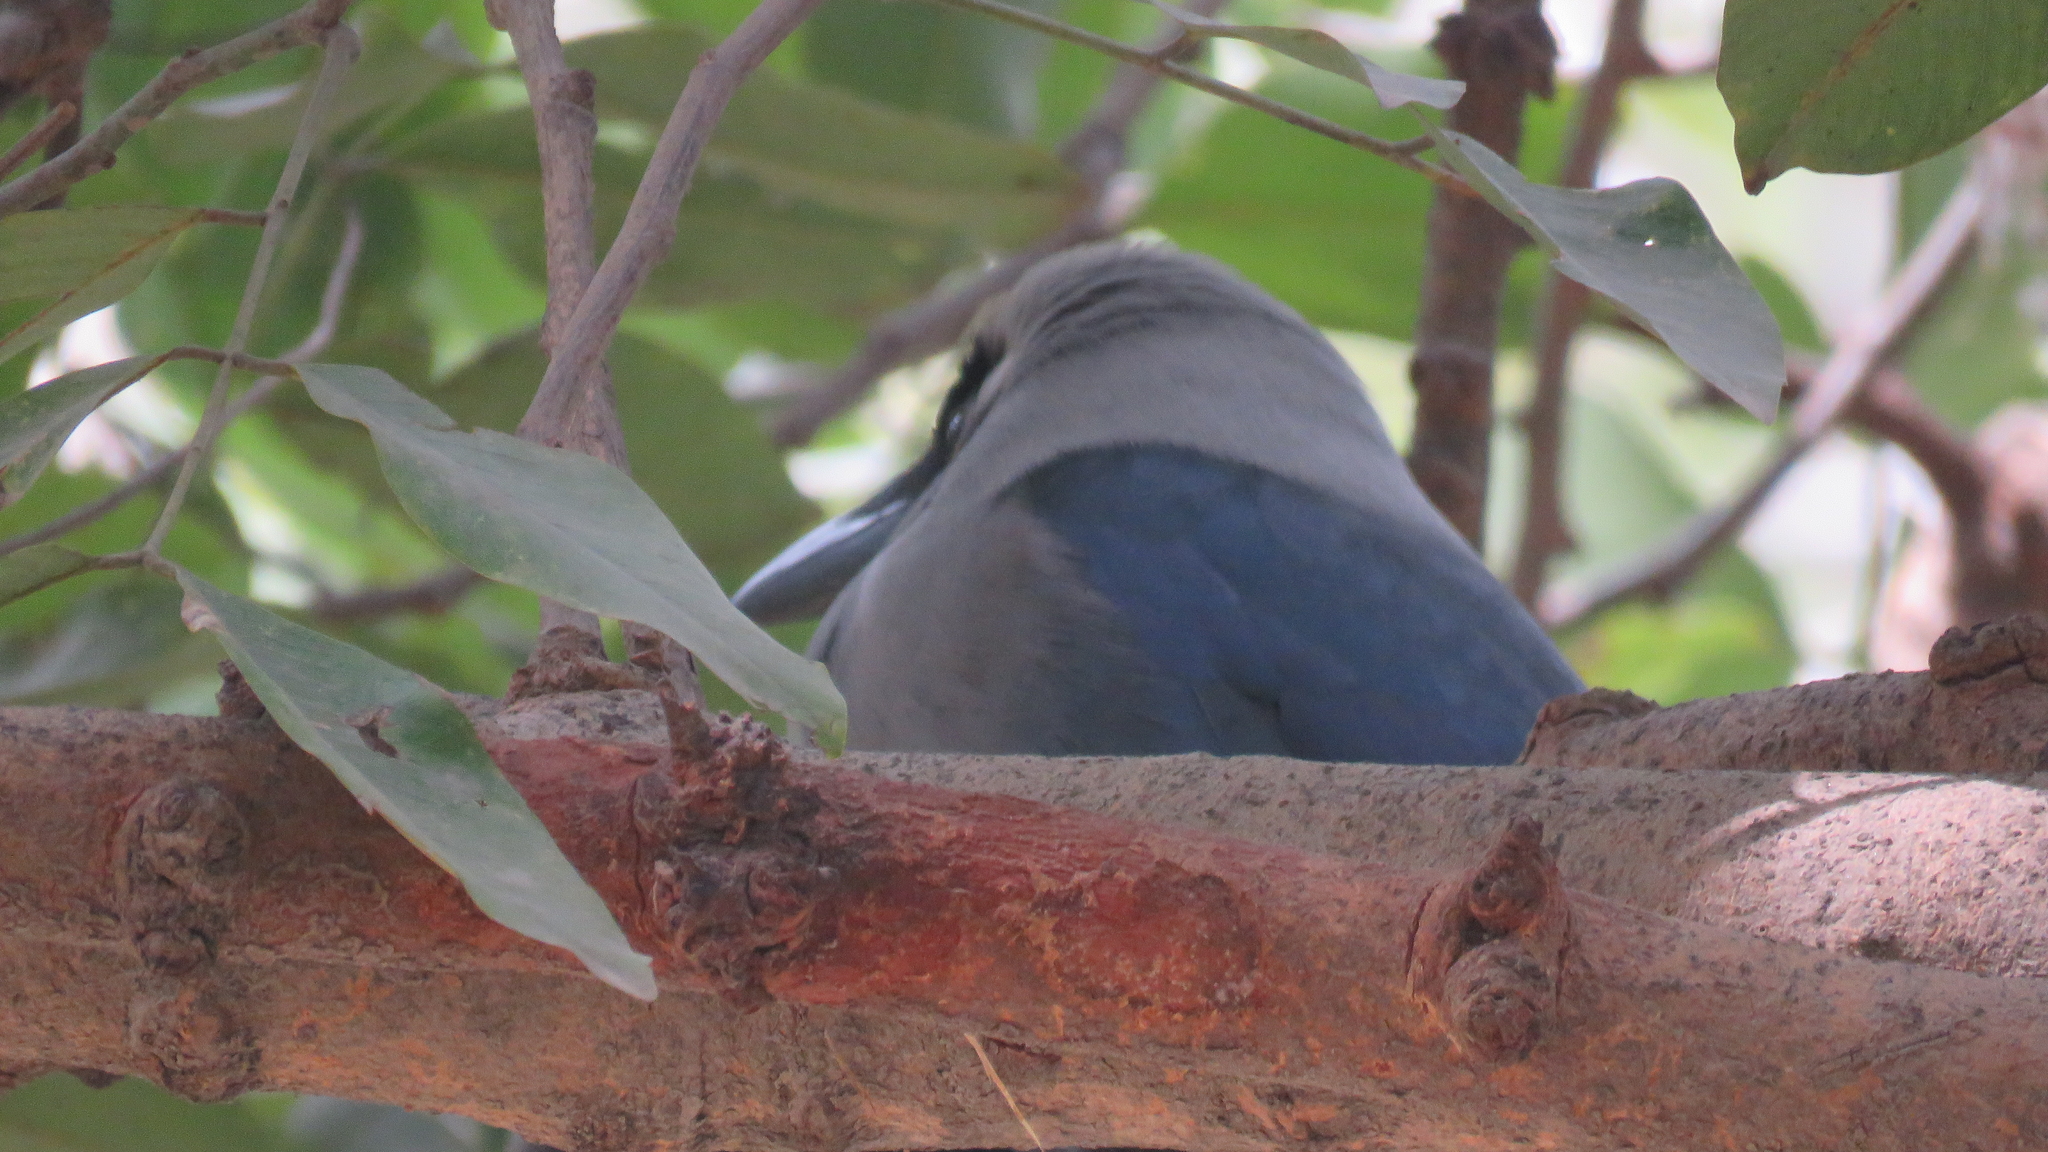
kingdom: Animalia
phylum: Chordata
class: Aves
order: Passeriformes
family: Corvidae
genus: Corvus
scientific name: Corvus splendens
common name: House crow
